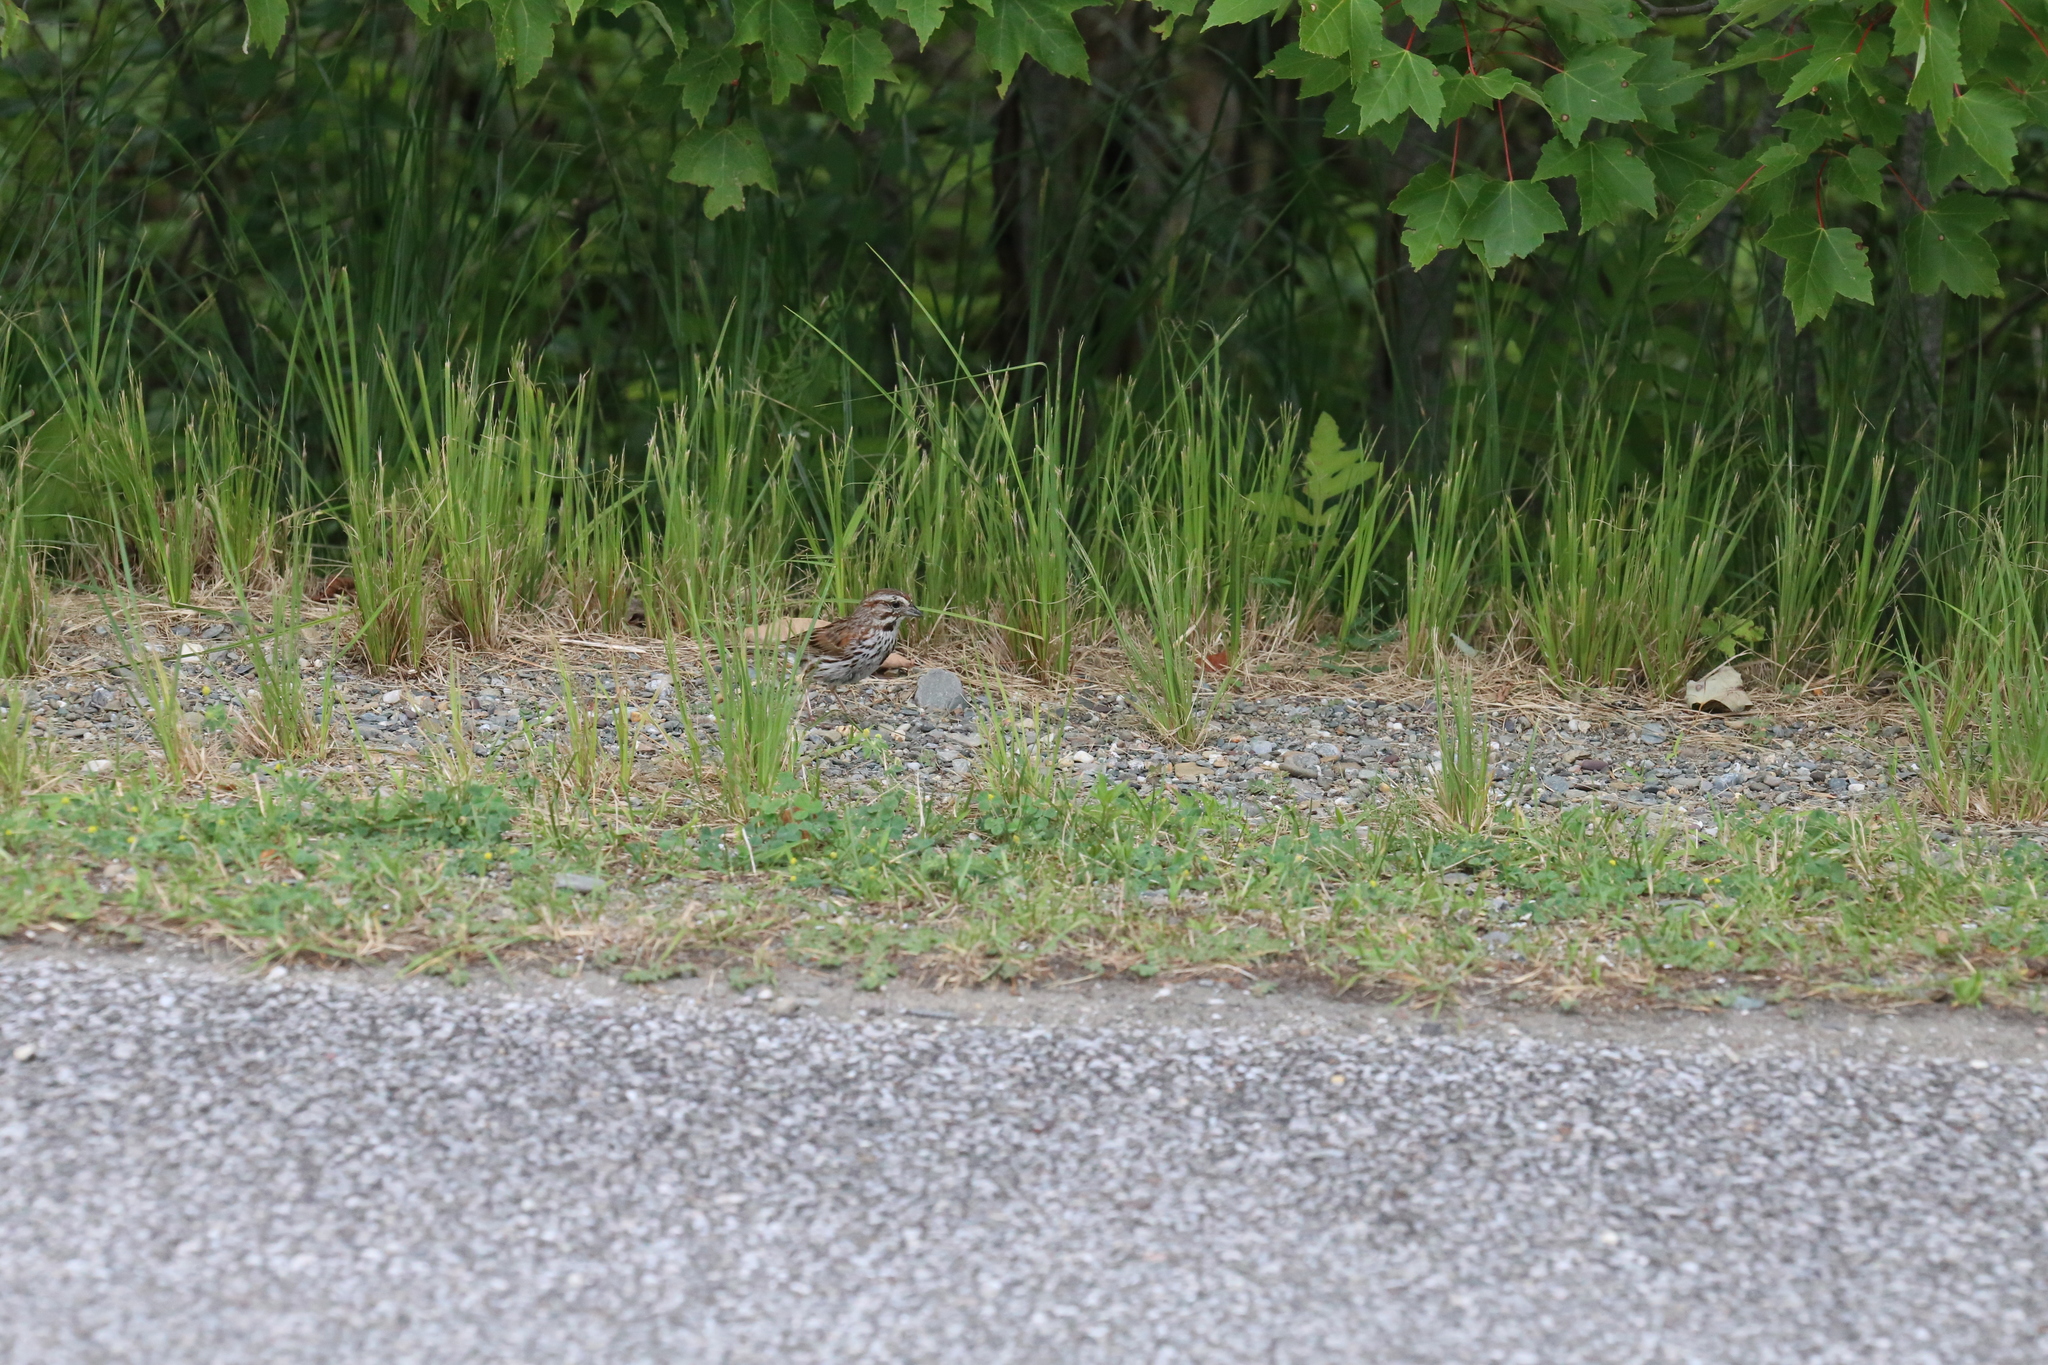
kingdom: Animalia
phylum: Chordata
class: Aves
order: Passeriformes
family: Passerellidae
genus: Melospiza
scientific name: Melospiza melodia
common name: Song sparrow
